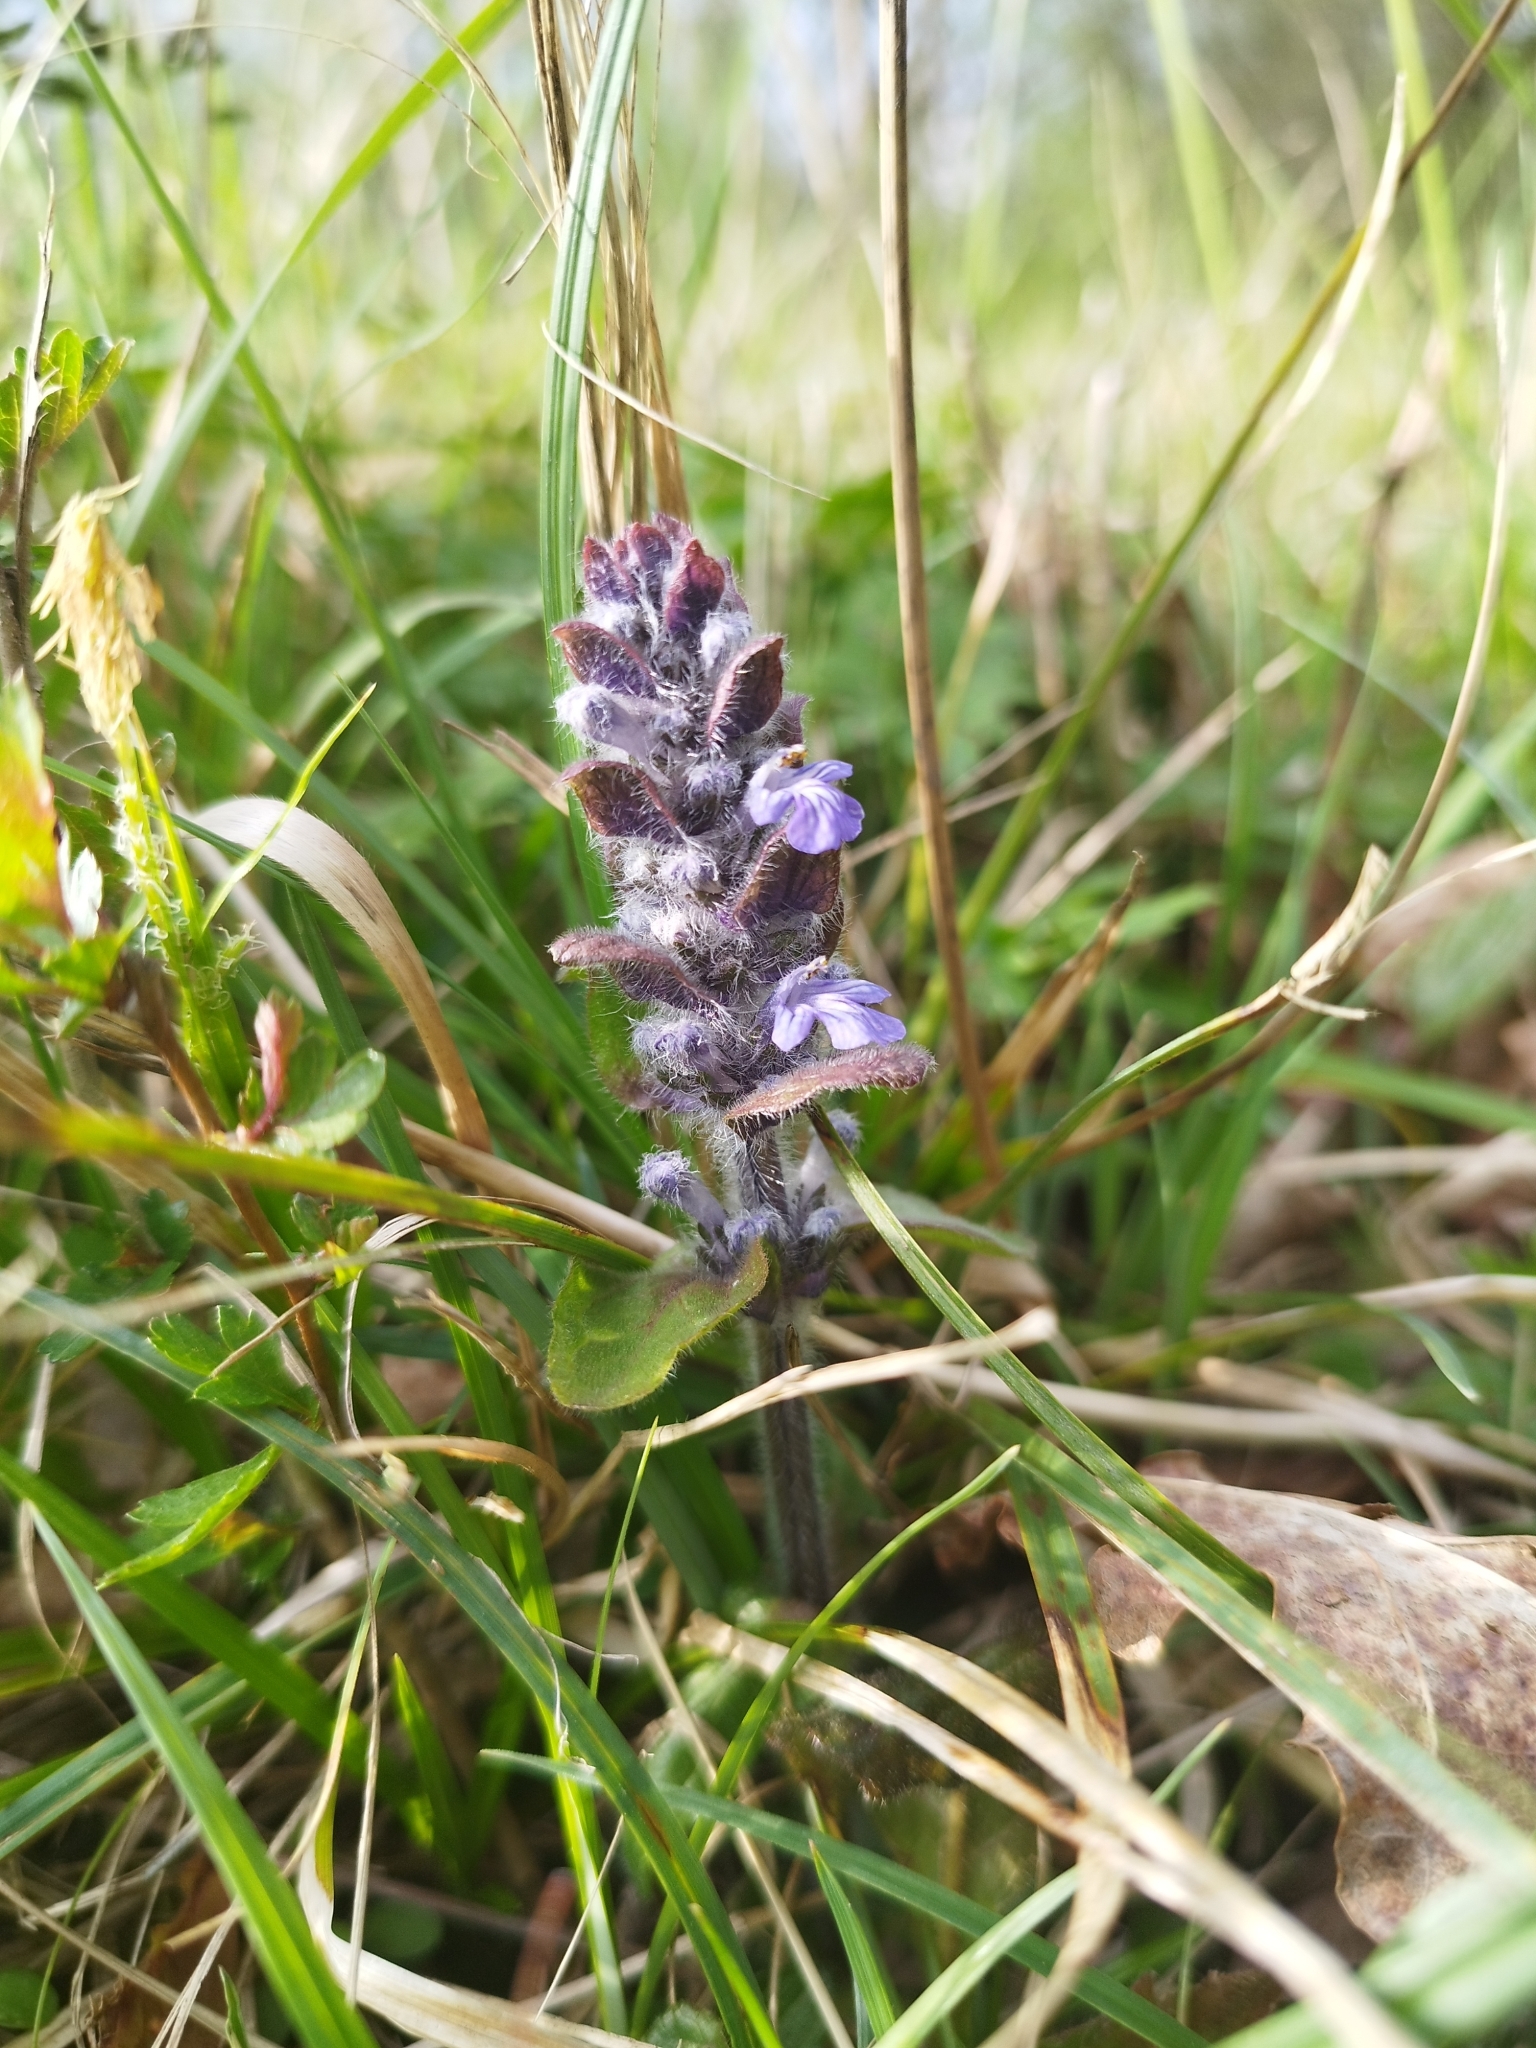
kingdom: Plantae
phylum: Tracheophyta
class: Magnoliopsida
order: Lamiales
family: Lamiaceae
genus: Ajuga
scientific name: Ajuga reptans
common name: Bugle
